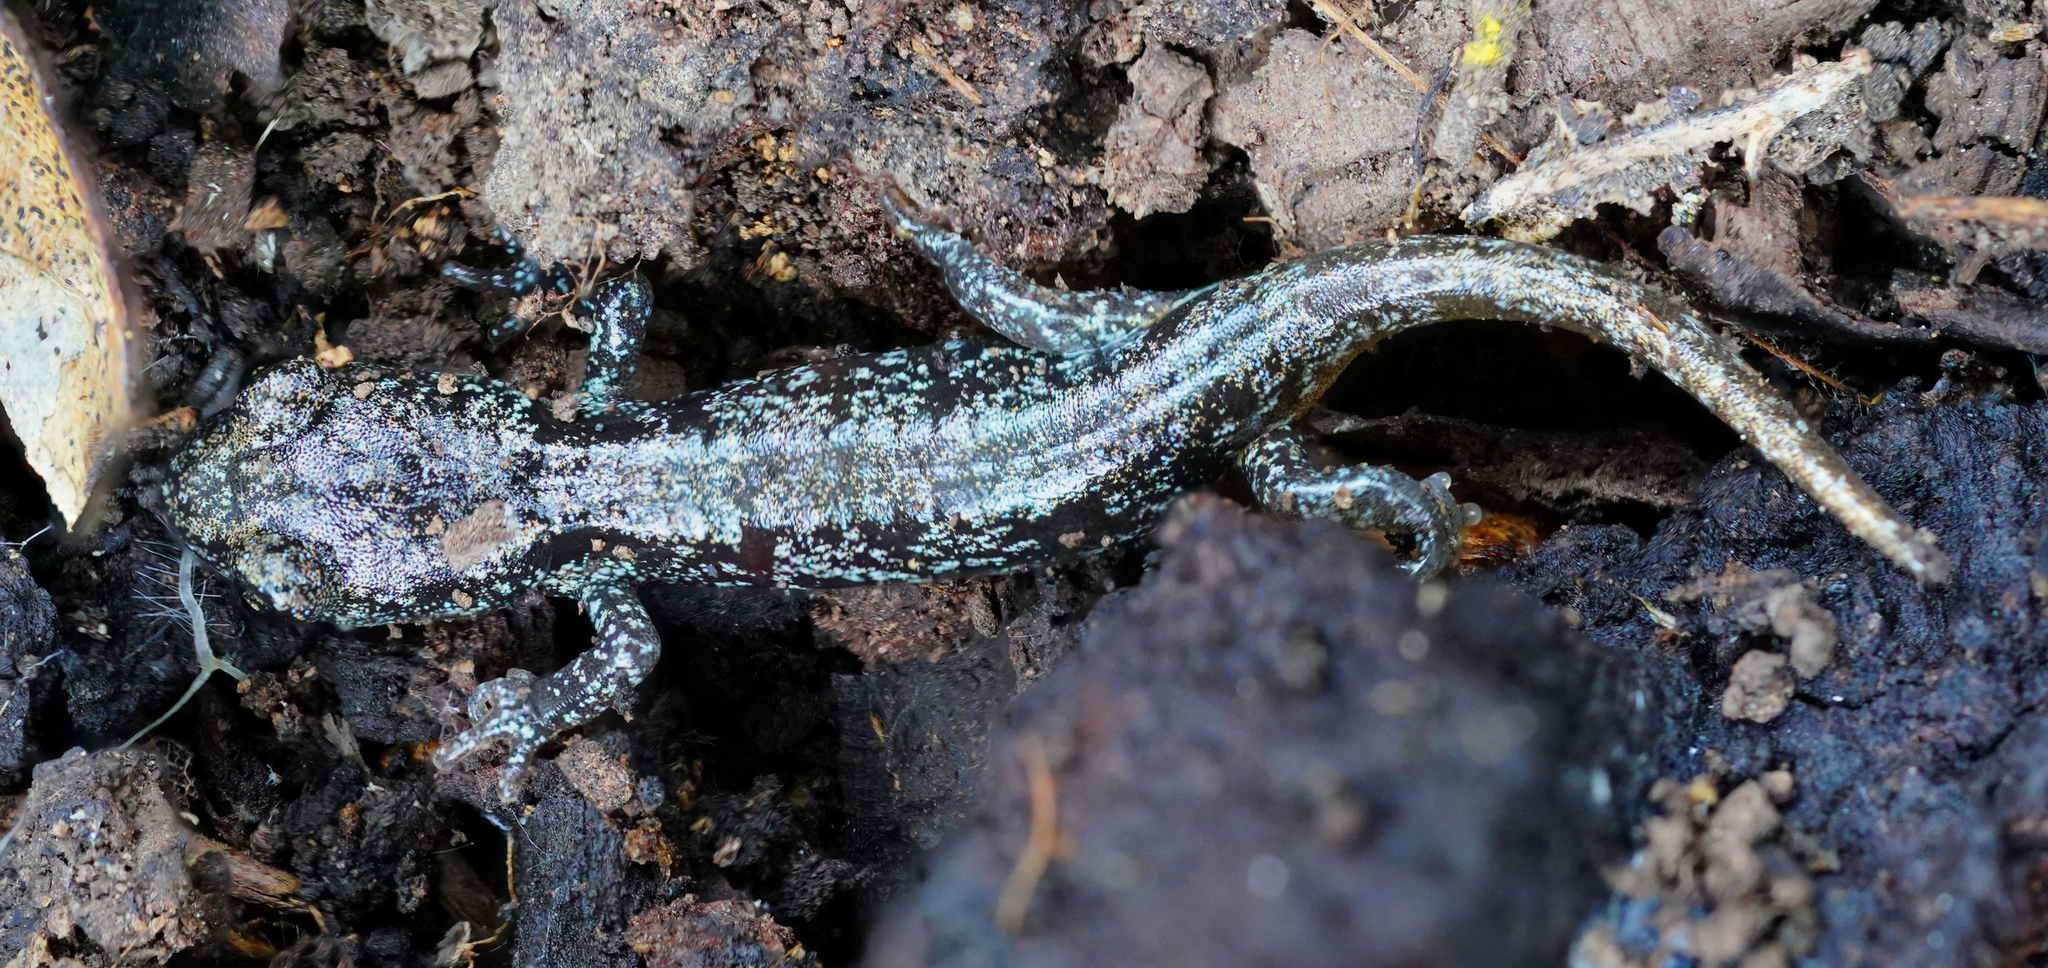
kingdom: Animalia
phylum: Chordata
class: Amphibia
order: Caudata
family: Plethodontidae
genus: Aneides
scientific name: Aneides lugubris
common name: Arboreal salamander
